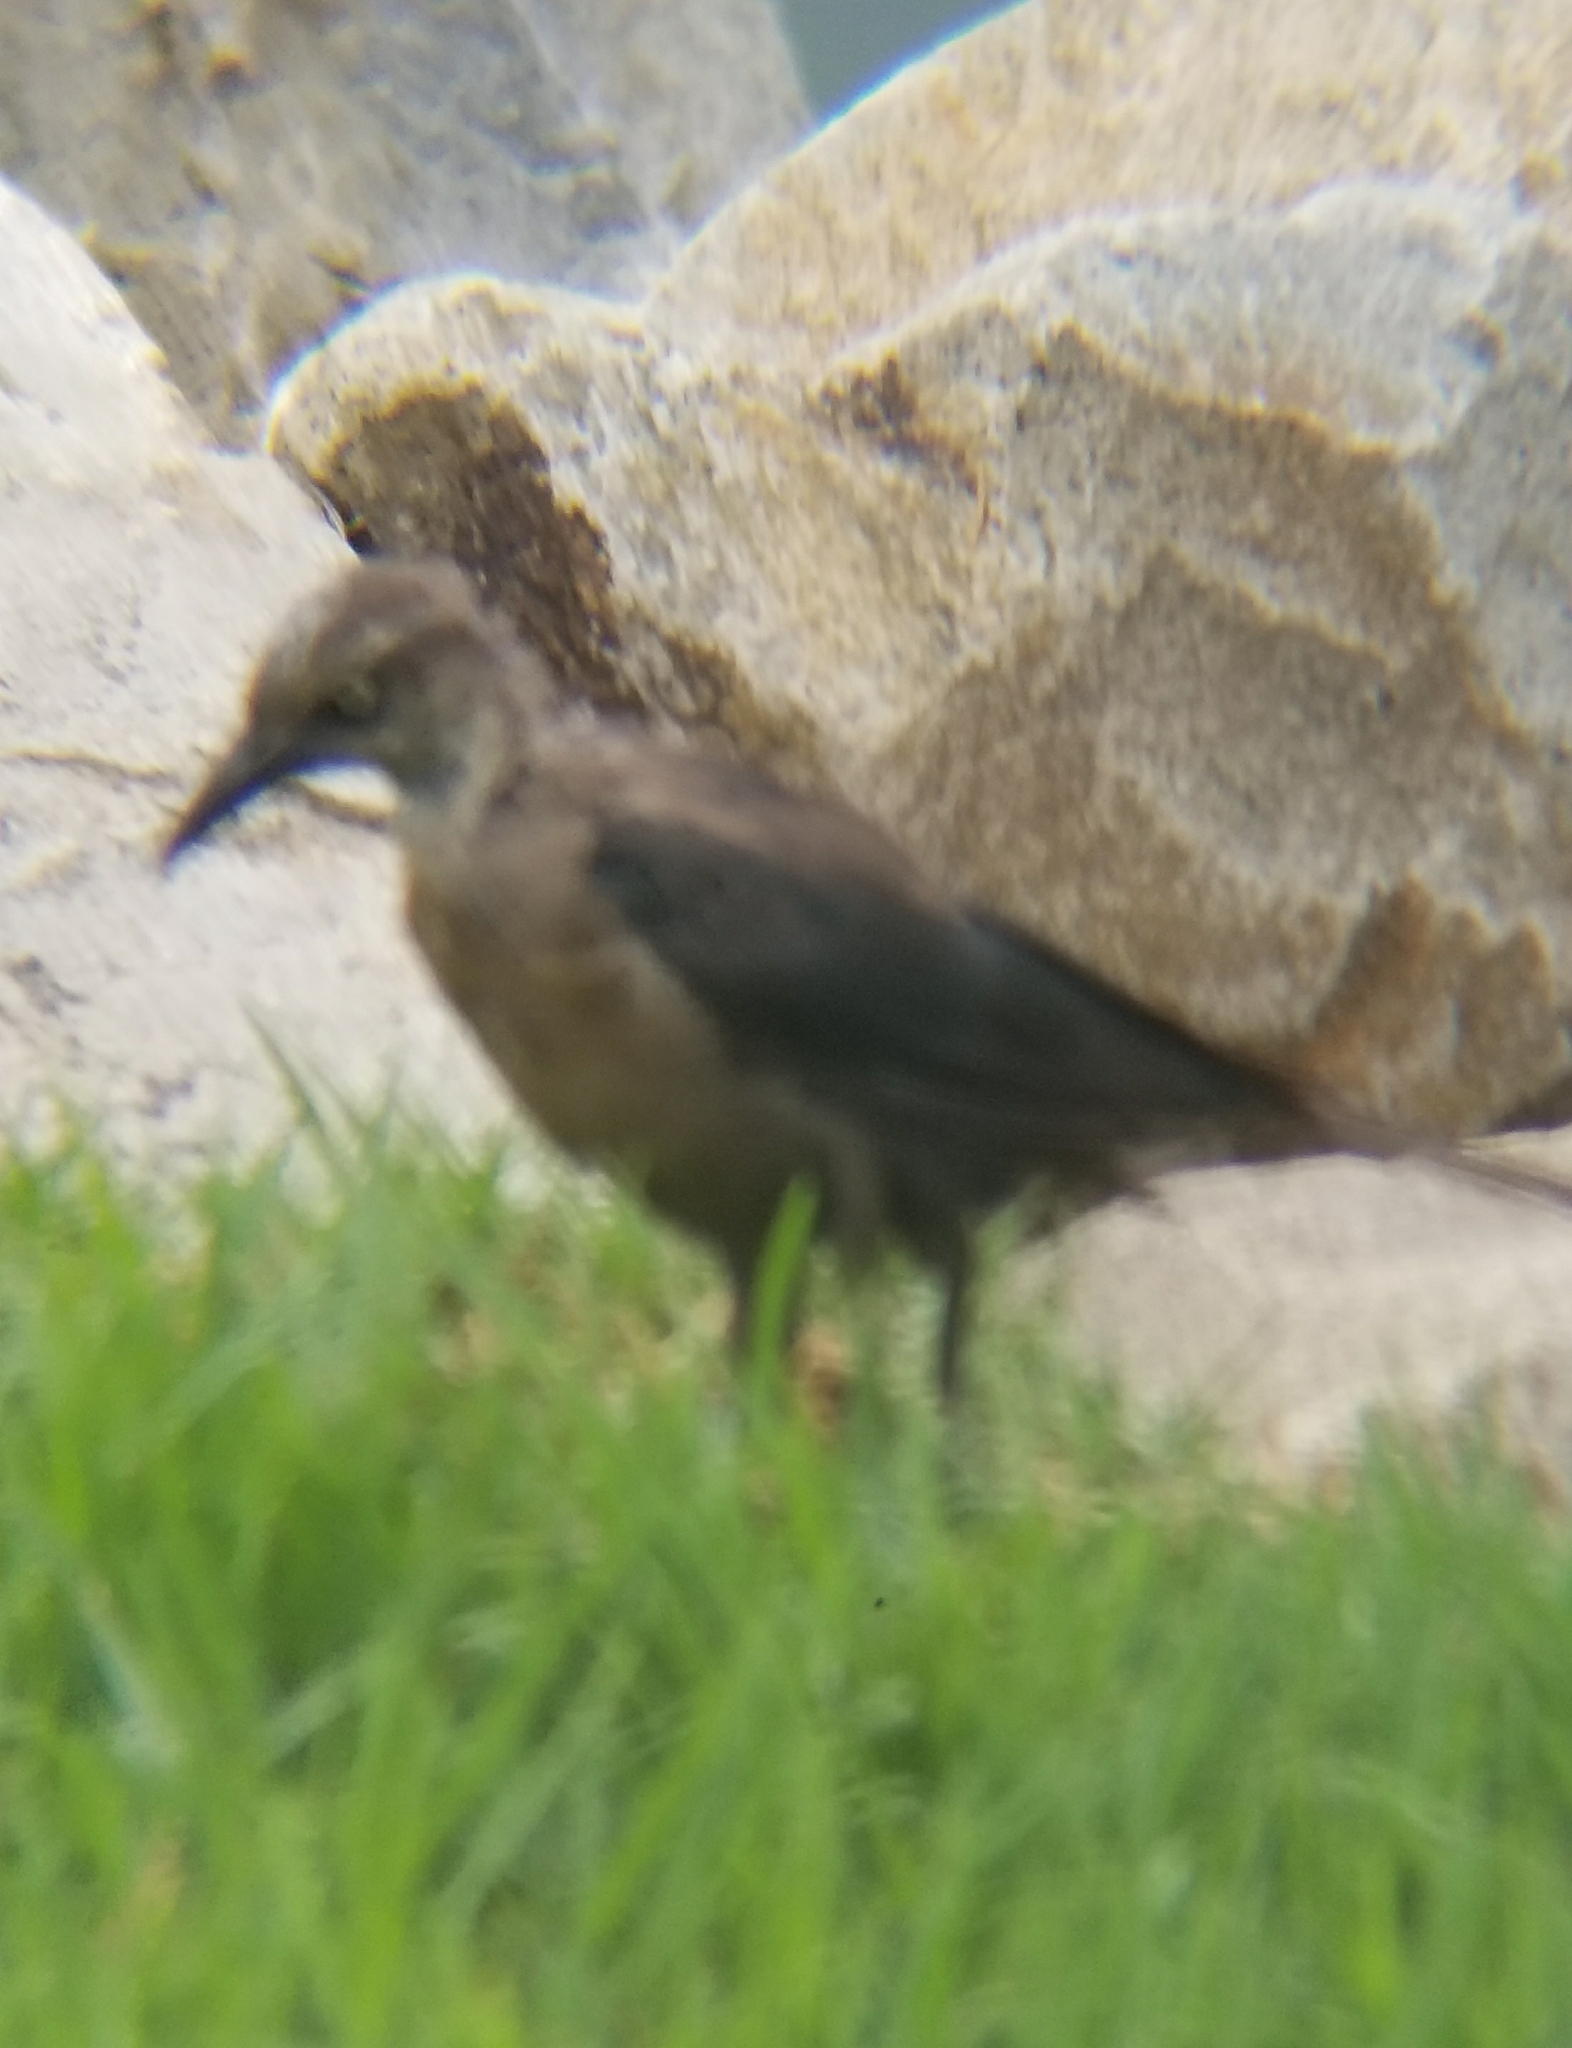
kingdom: Animalia
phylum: Chordata
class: Aves
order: Passeriformes
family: Icteridae
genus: Quiscalus
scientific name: Quiscalus mexicanus
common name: Great-tailed grackle
